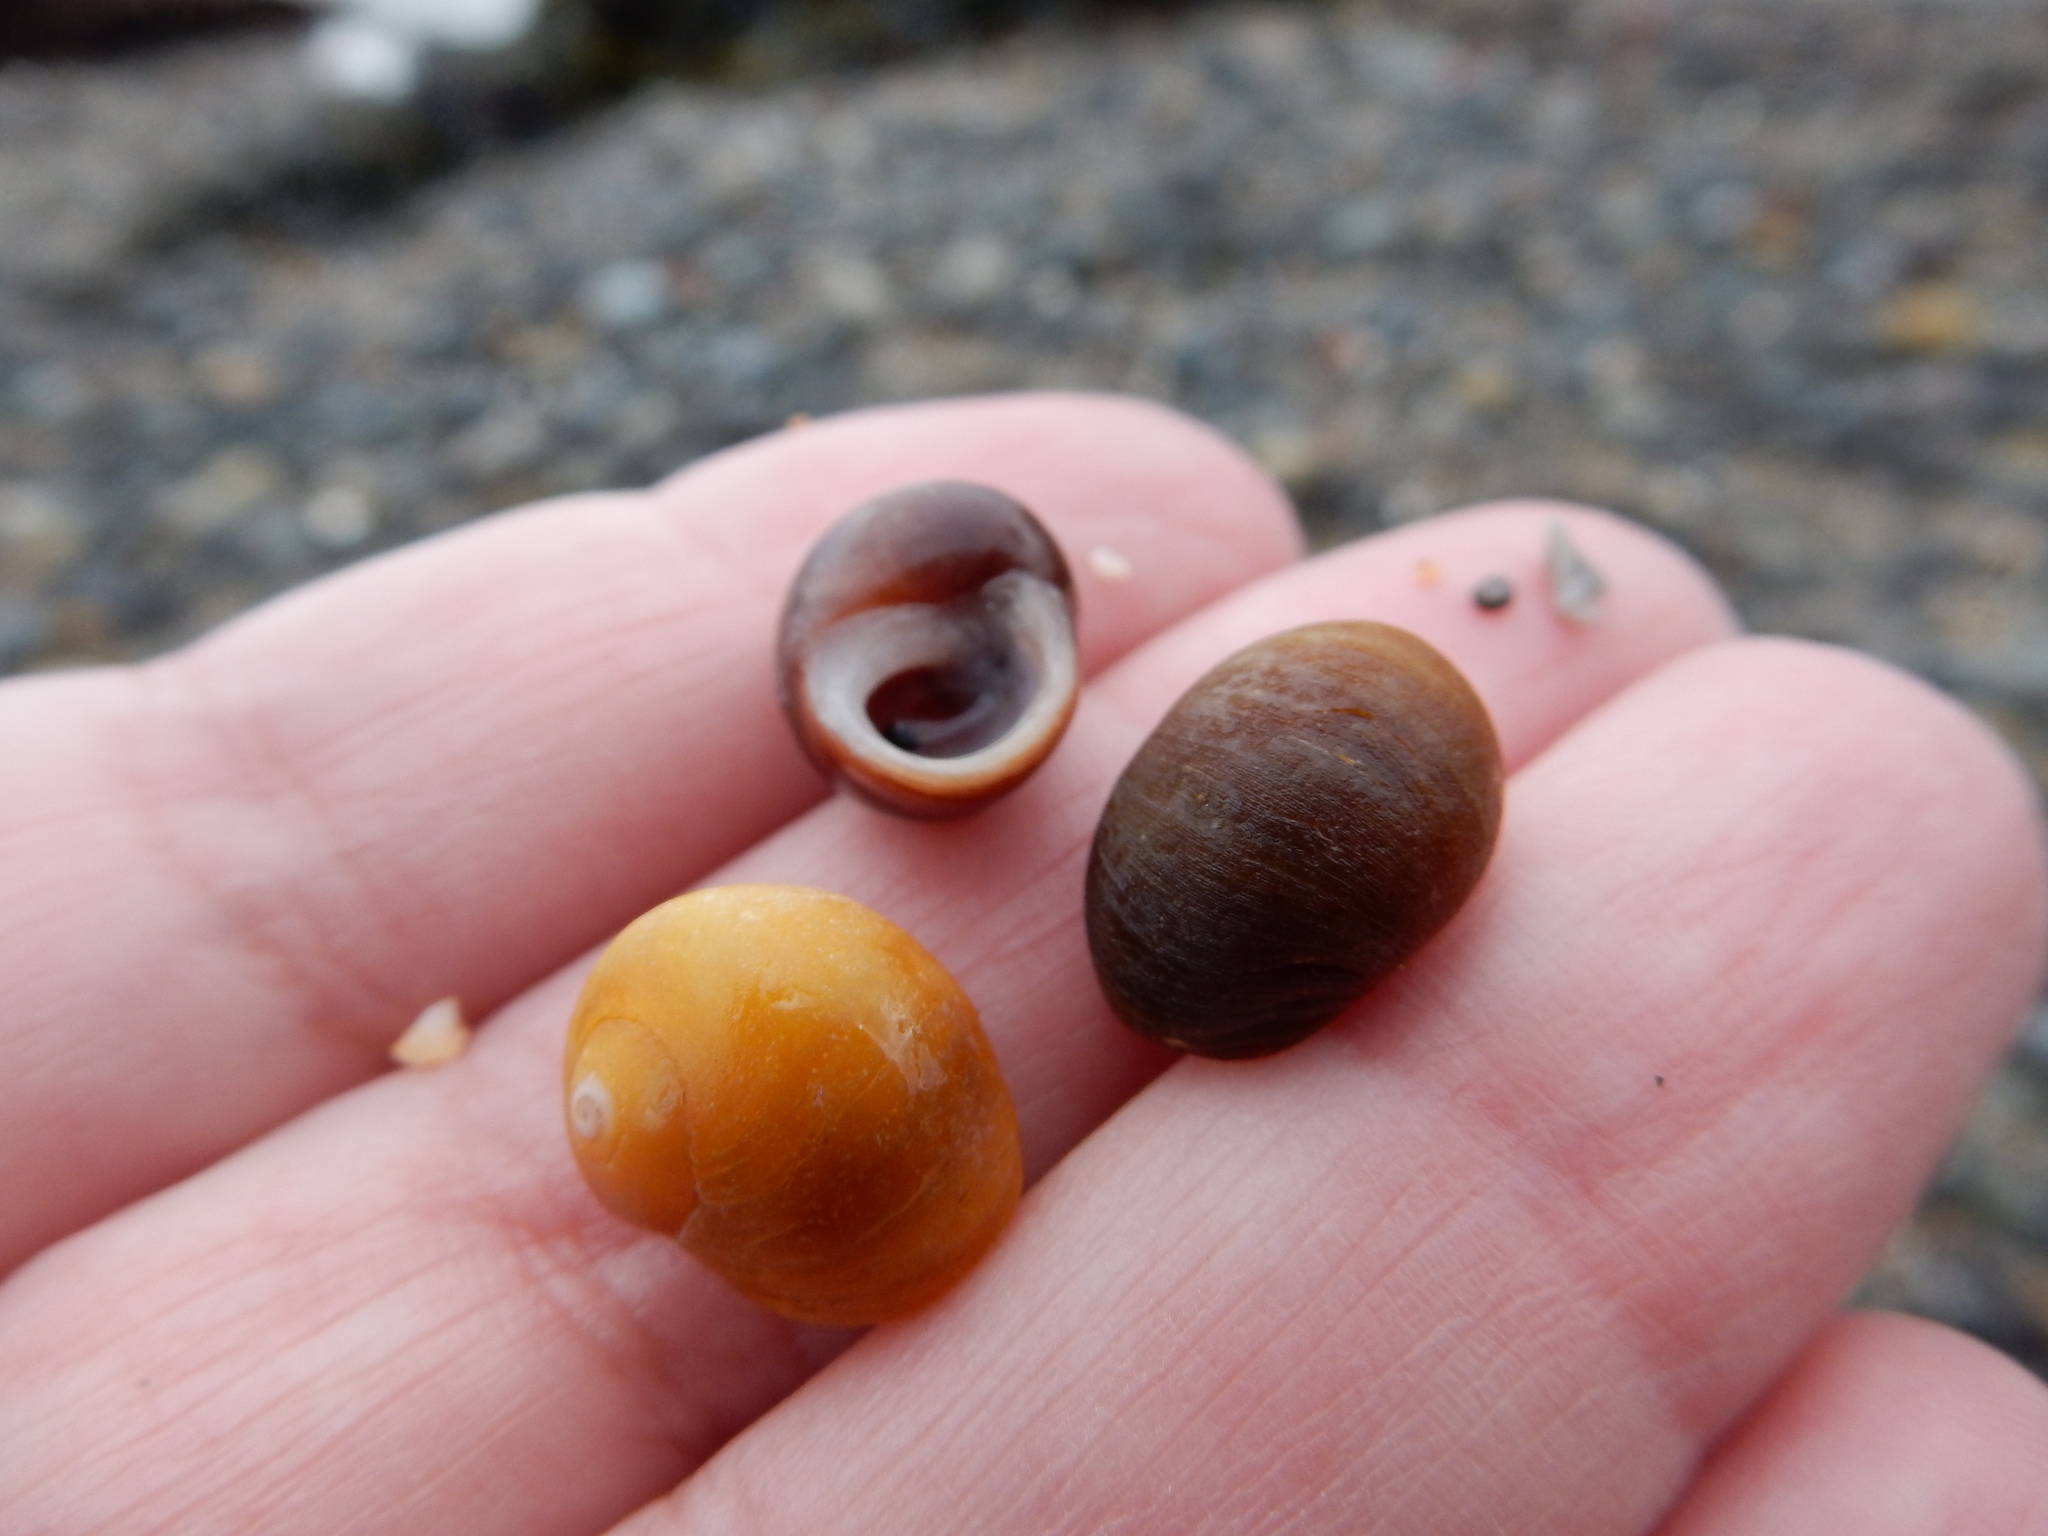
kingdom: Animalia
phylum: Mollusca
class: Gastropoda
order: Littorinimorpha
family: Littorinidae
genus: Littorina
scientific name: Littorina obtusata
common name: Flat periwinkle
